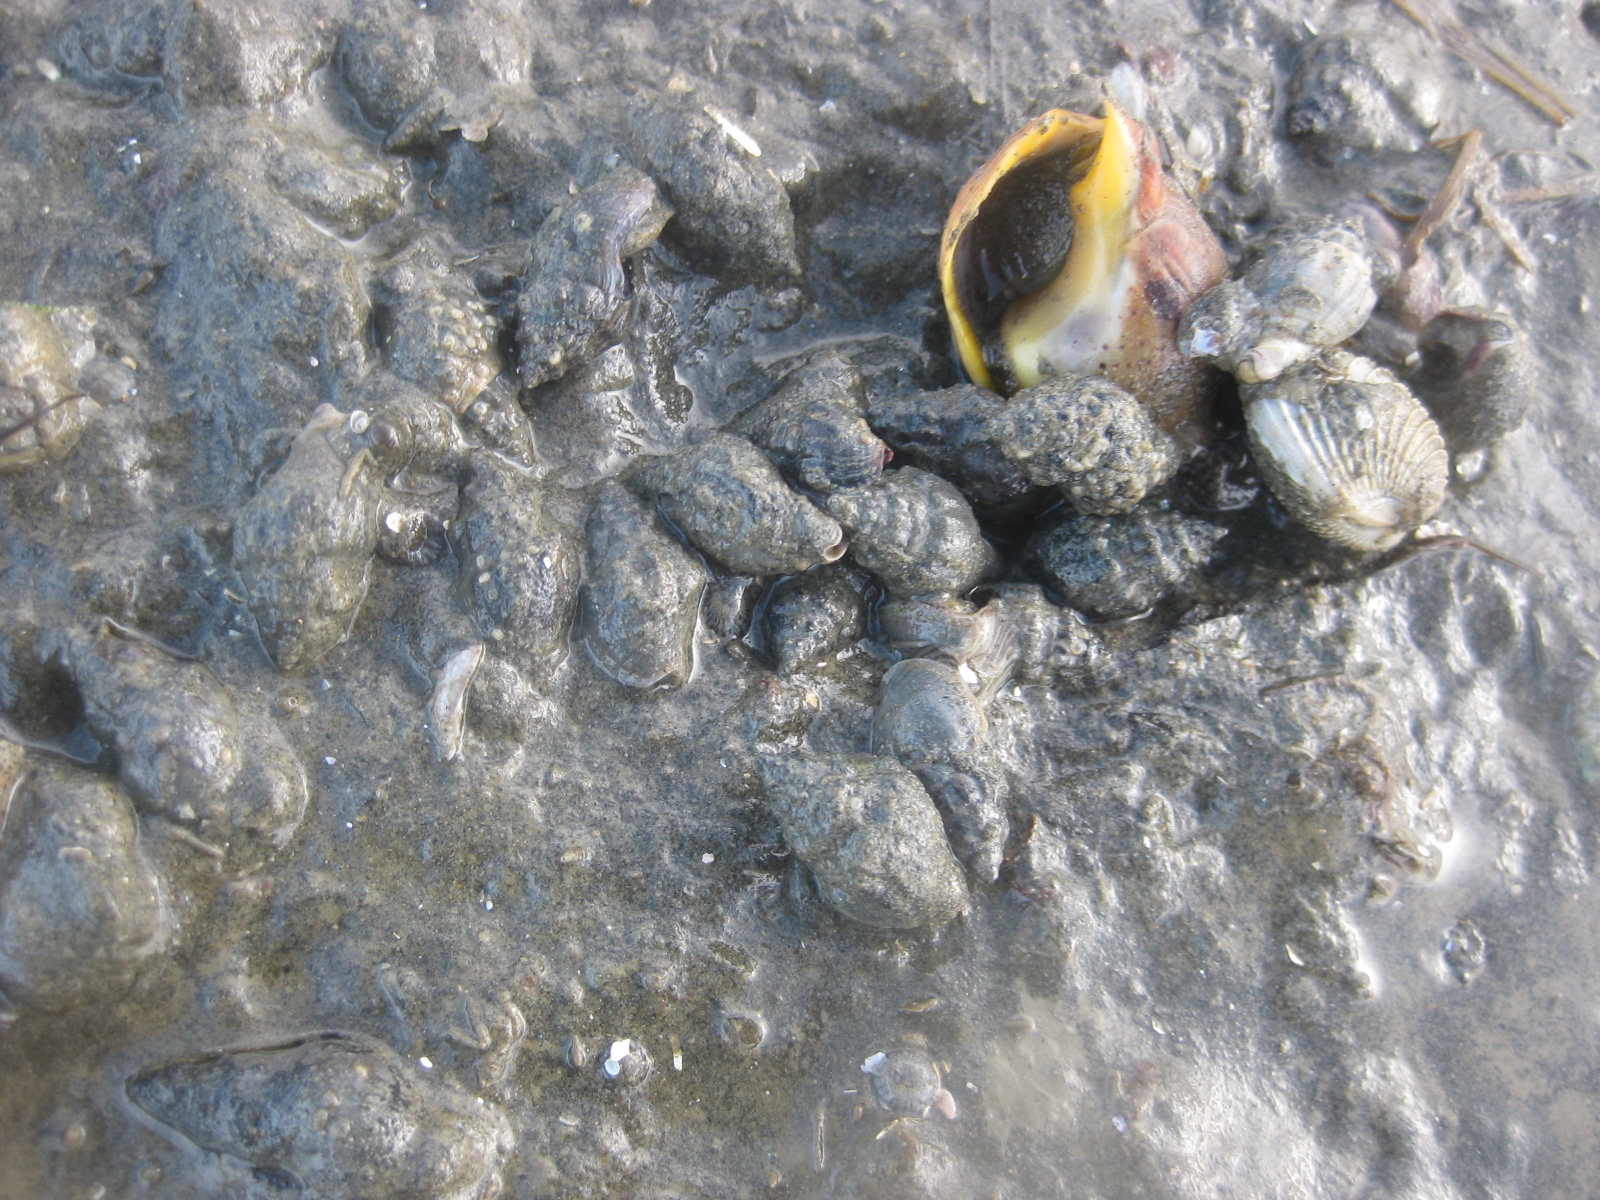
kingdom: Animalia
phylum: Mollusca
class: Gastropoda
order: Neogastropoda
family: Cominellidae
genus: Cominella
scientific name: Cominella glandiformis
